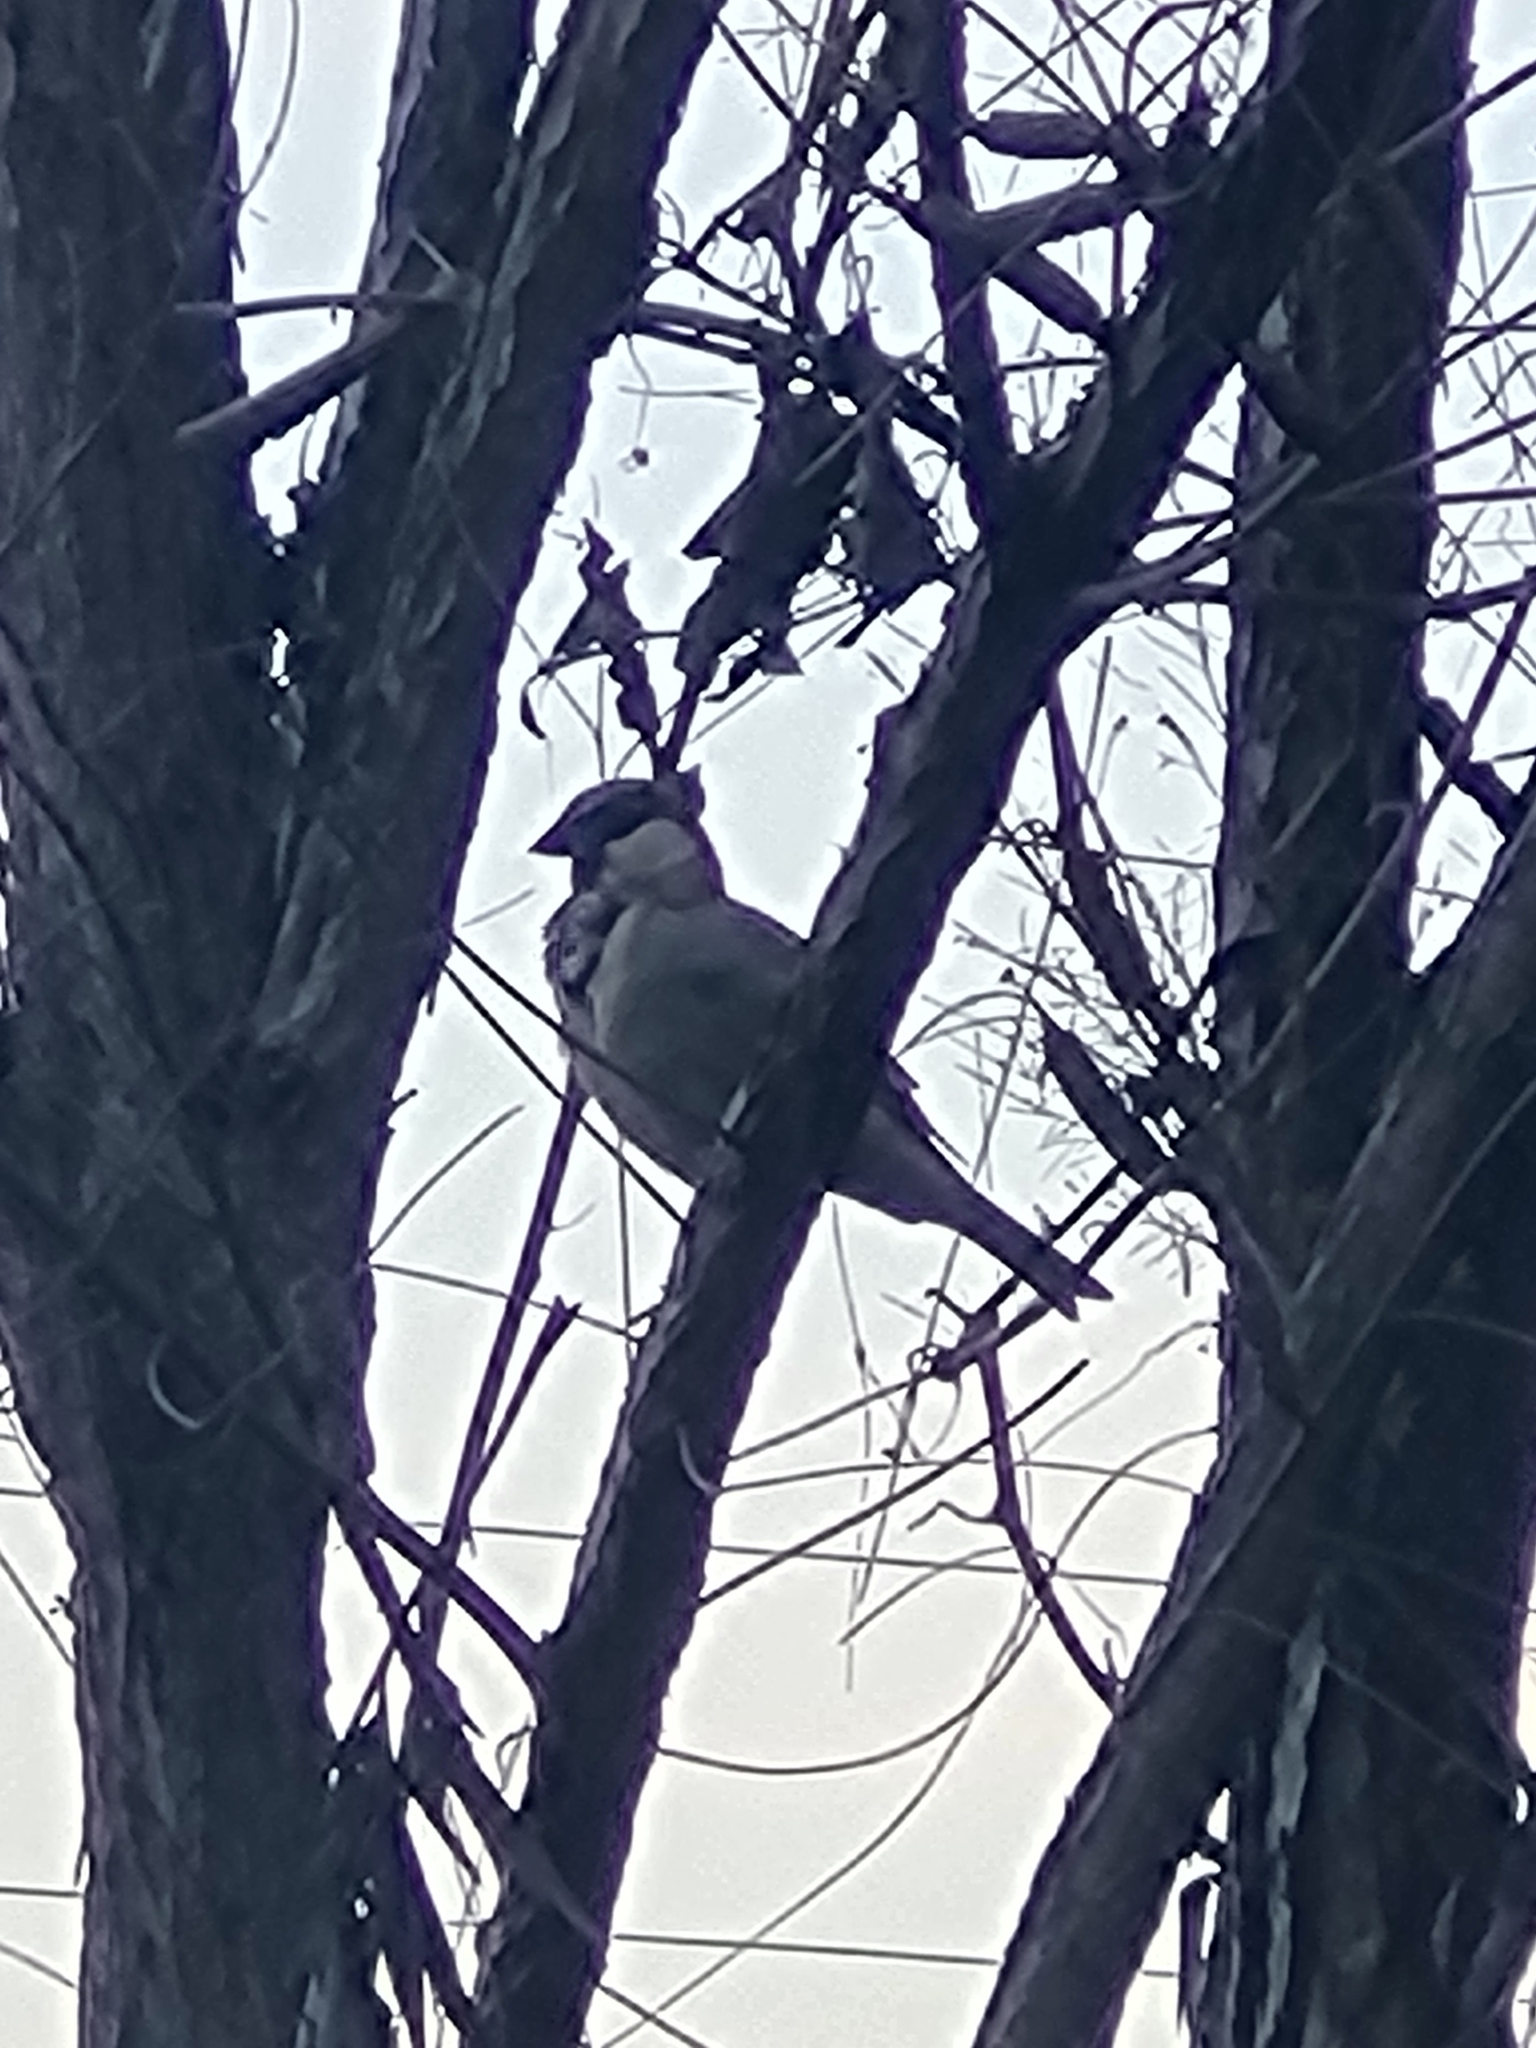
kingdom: Animalia
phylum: Chordata
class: Aves
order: Passeriformes
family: Passeridae
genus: Passer
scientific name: Passer domesticus
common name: House sparrow
